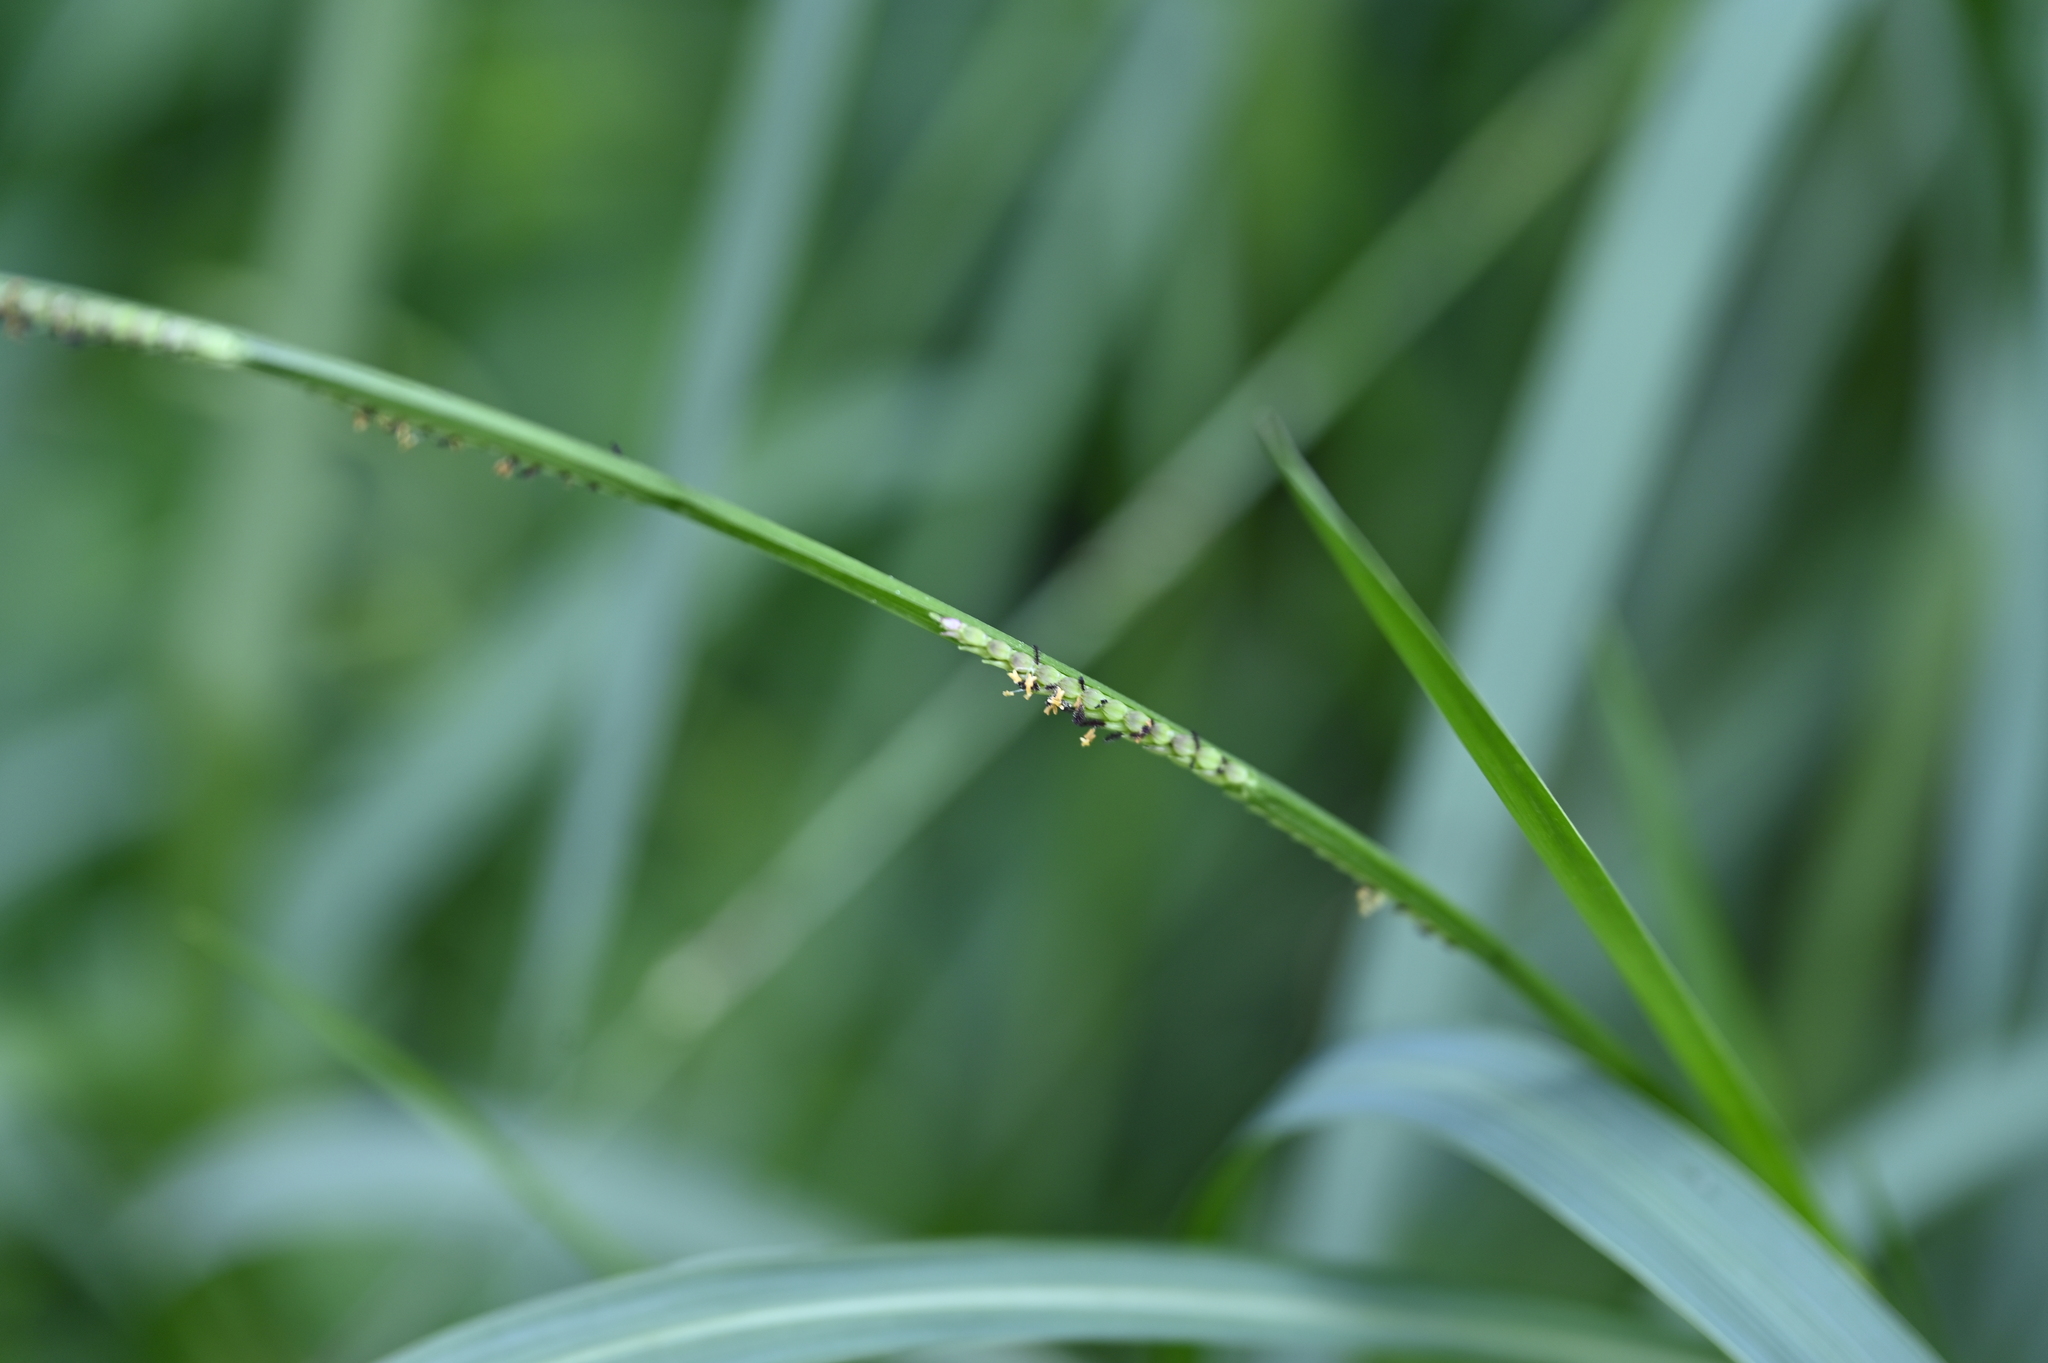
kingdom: Plantae
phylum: Tracheophyta
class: Liliopsida
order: Poales
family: Poaceae
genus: Setaria
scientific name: Setaria punctata
